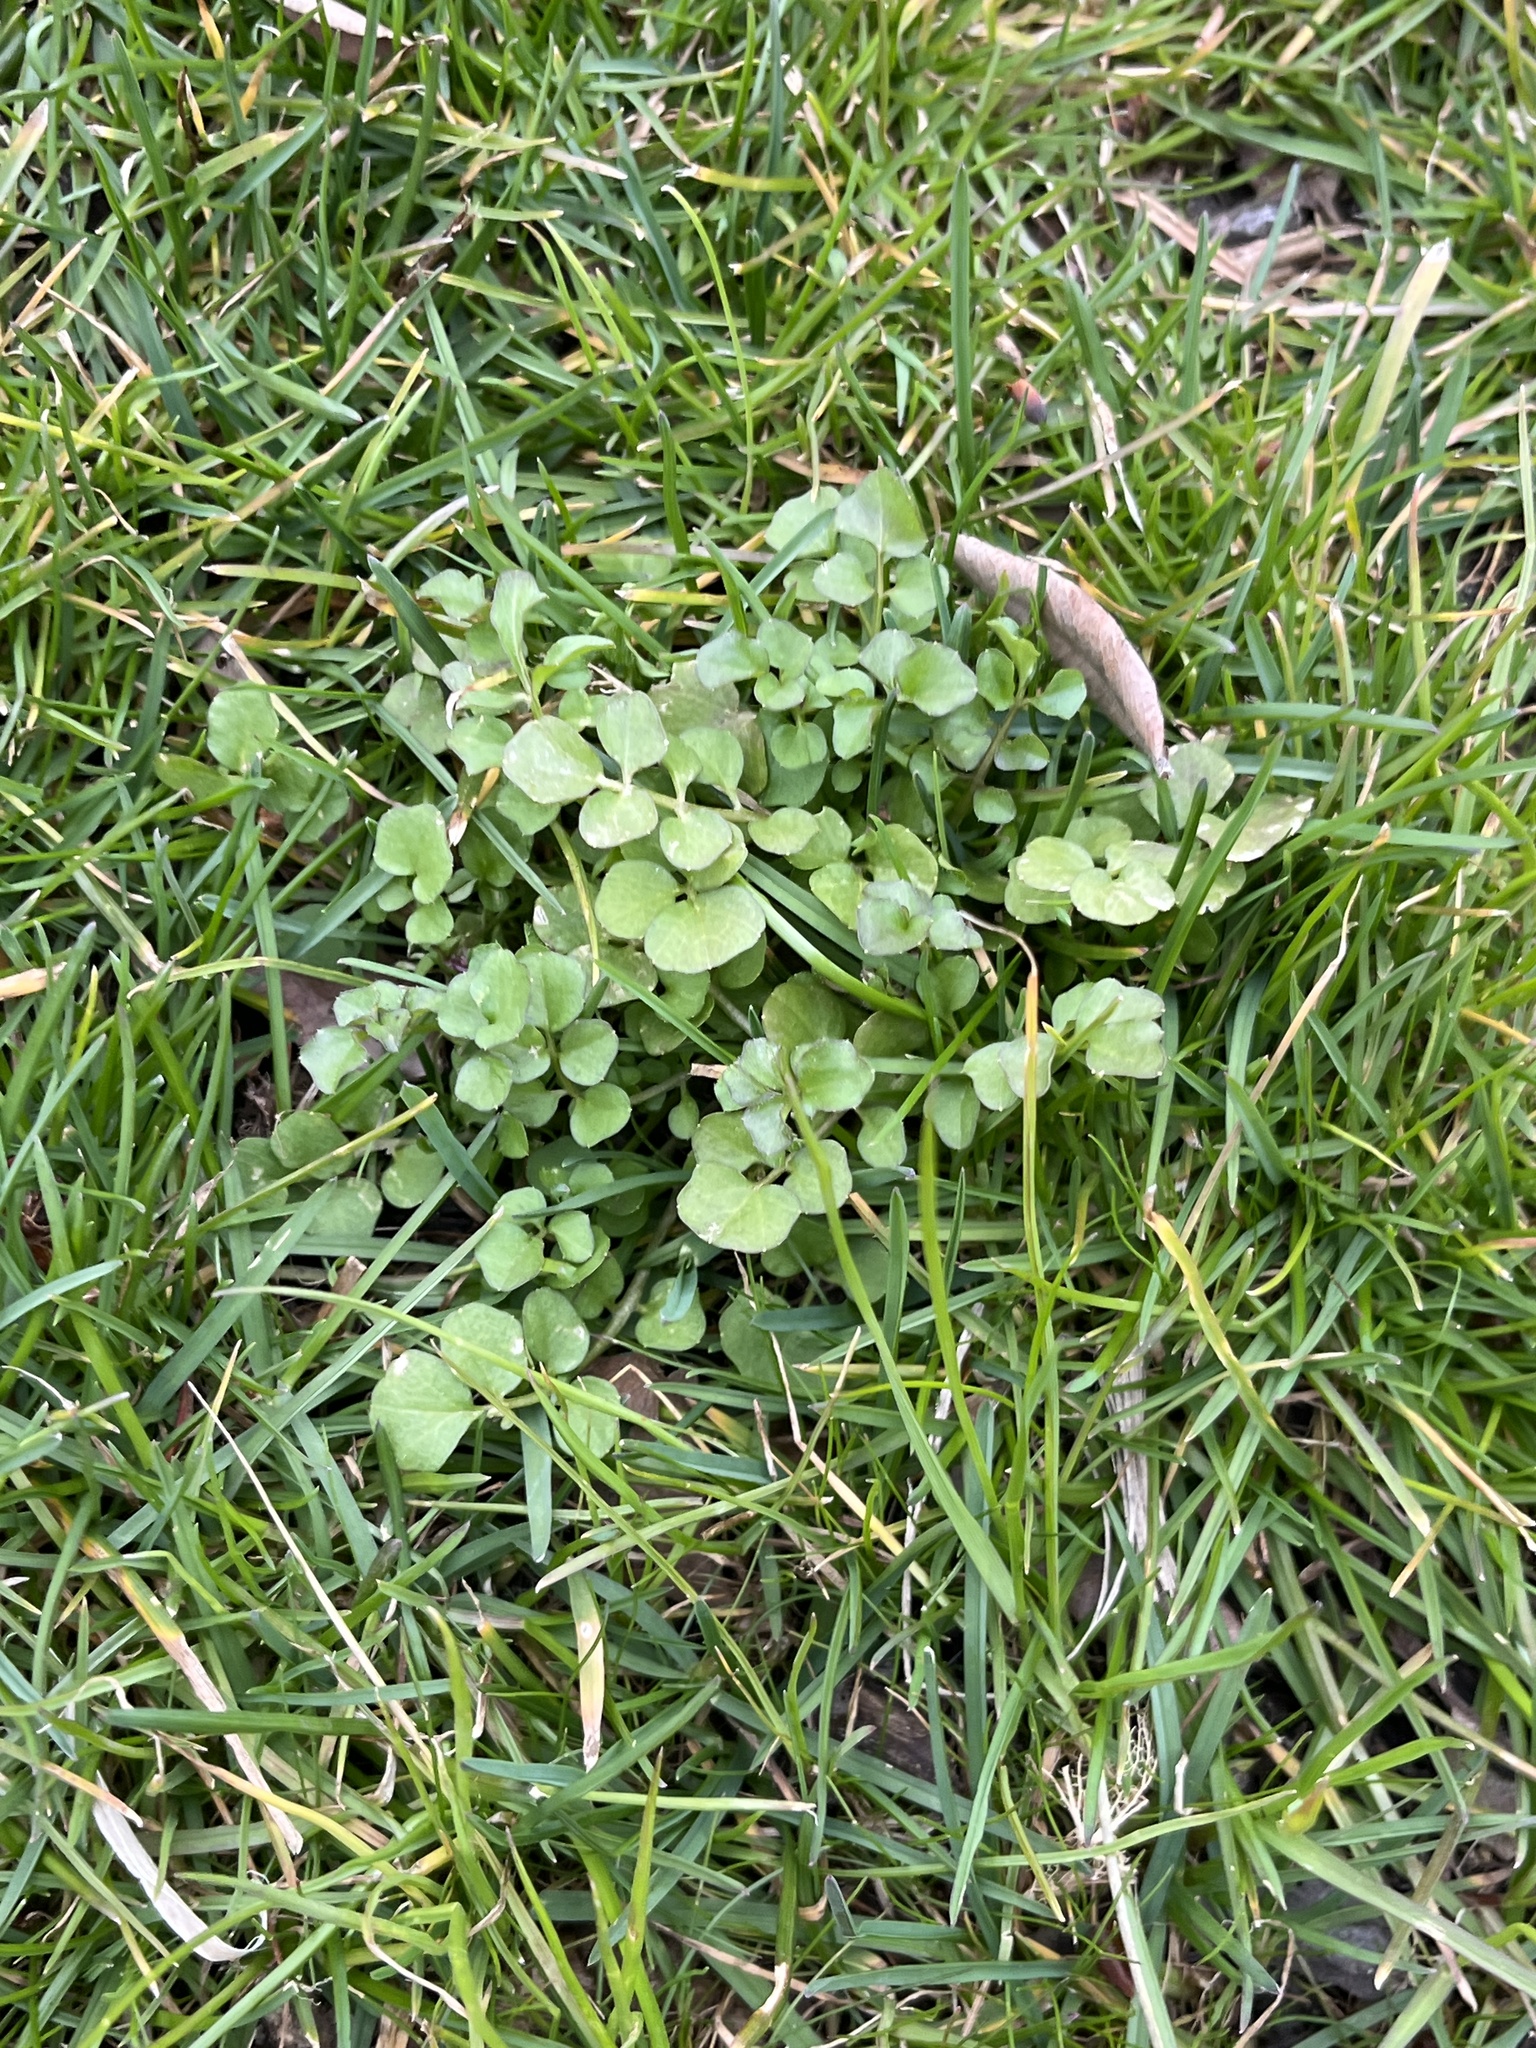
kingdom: Plantae
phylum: Tracheophyta
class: Magnoliopsida
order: Brassicales
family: Brassicaceae
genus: Cardamine
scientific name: Cardamine hirsuta
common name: Hairy bittercress
